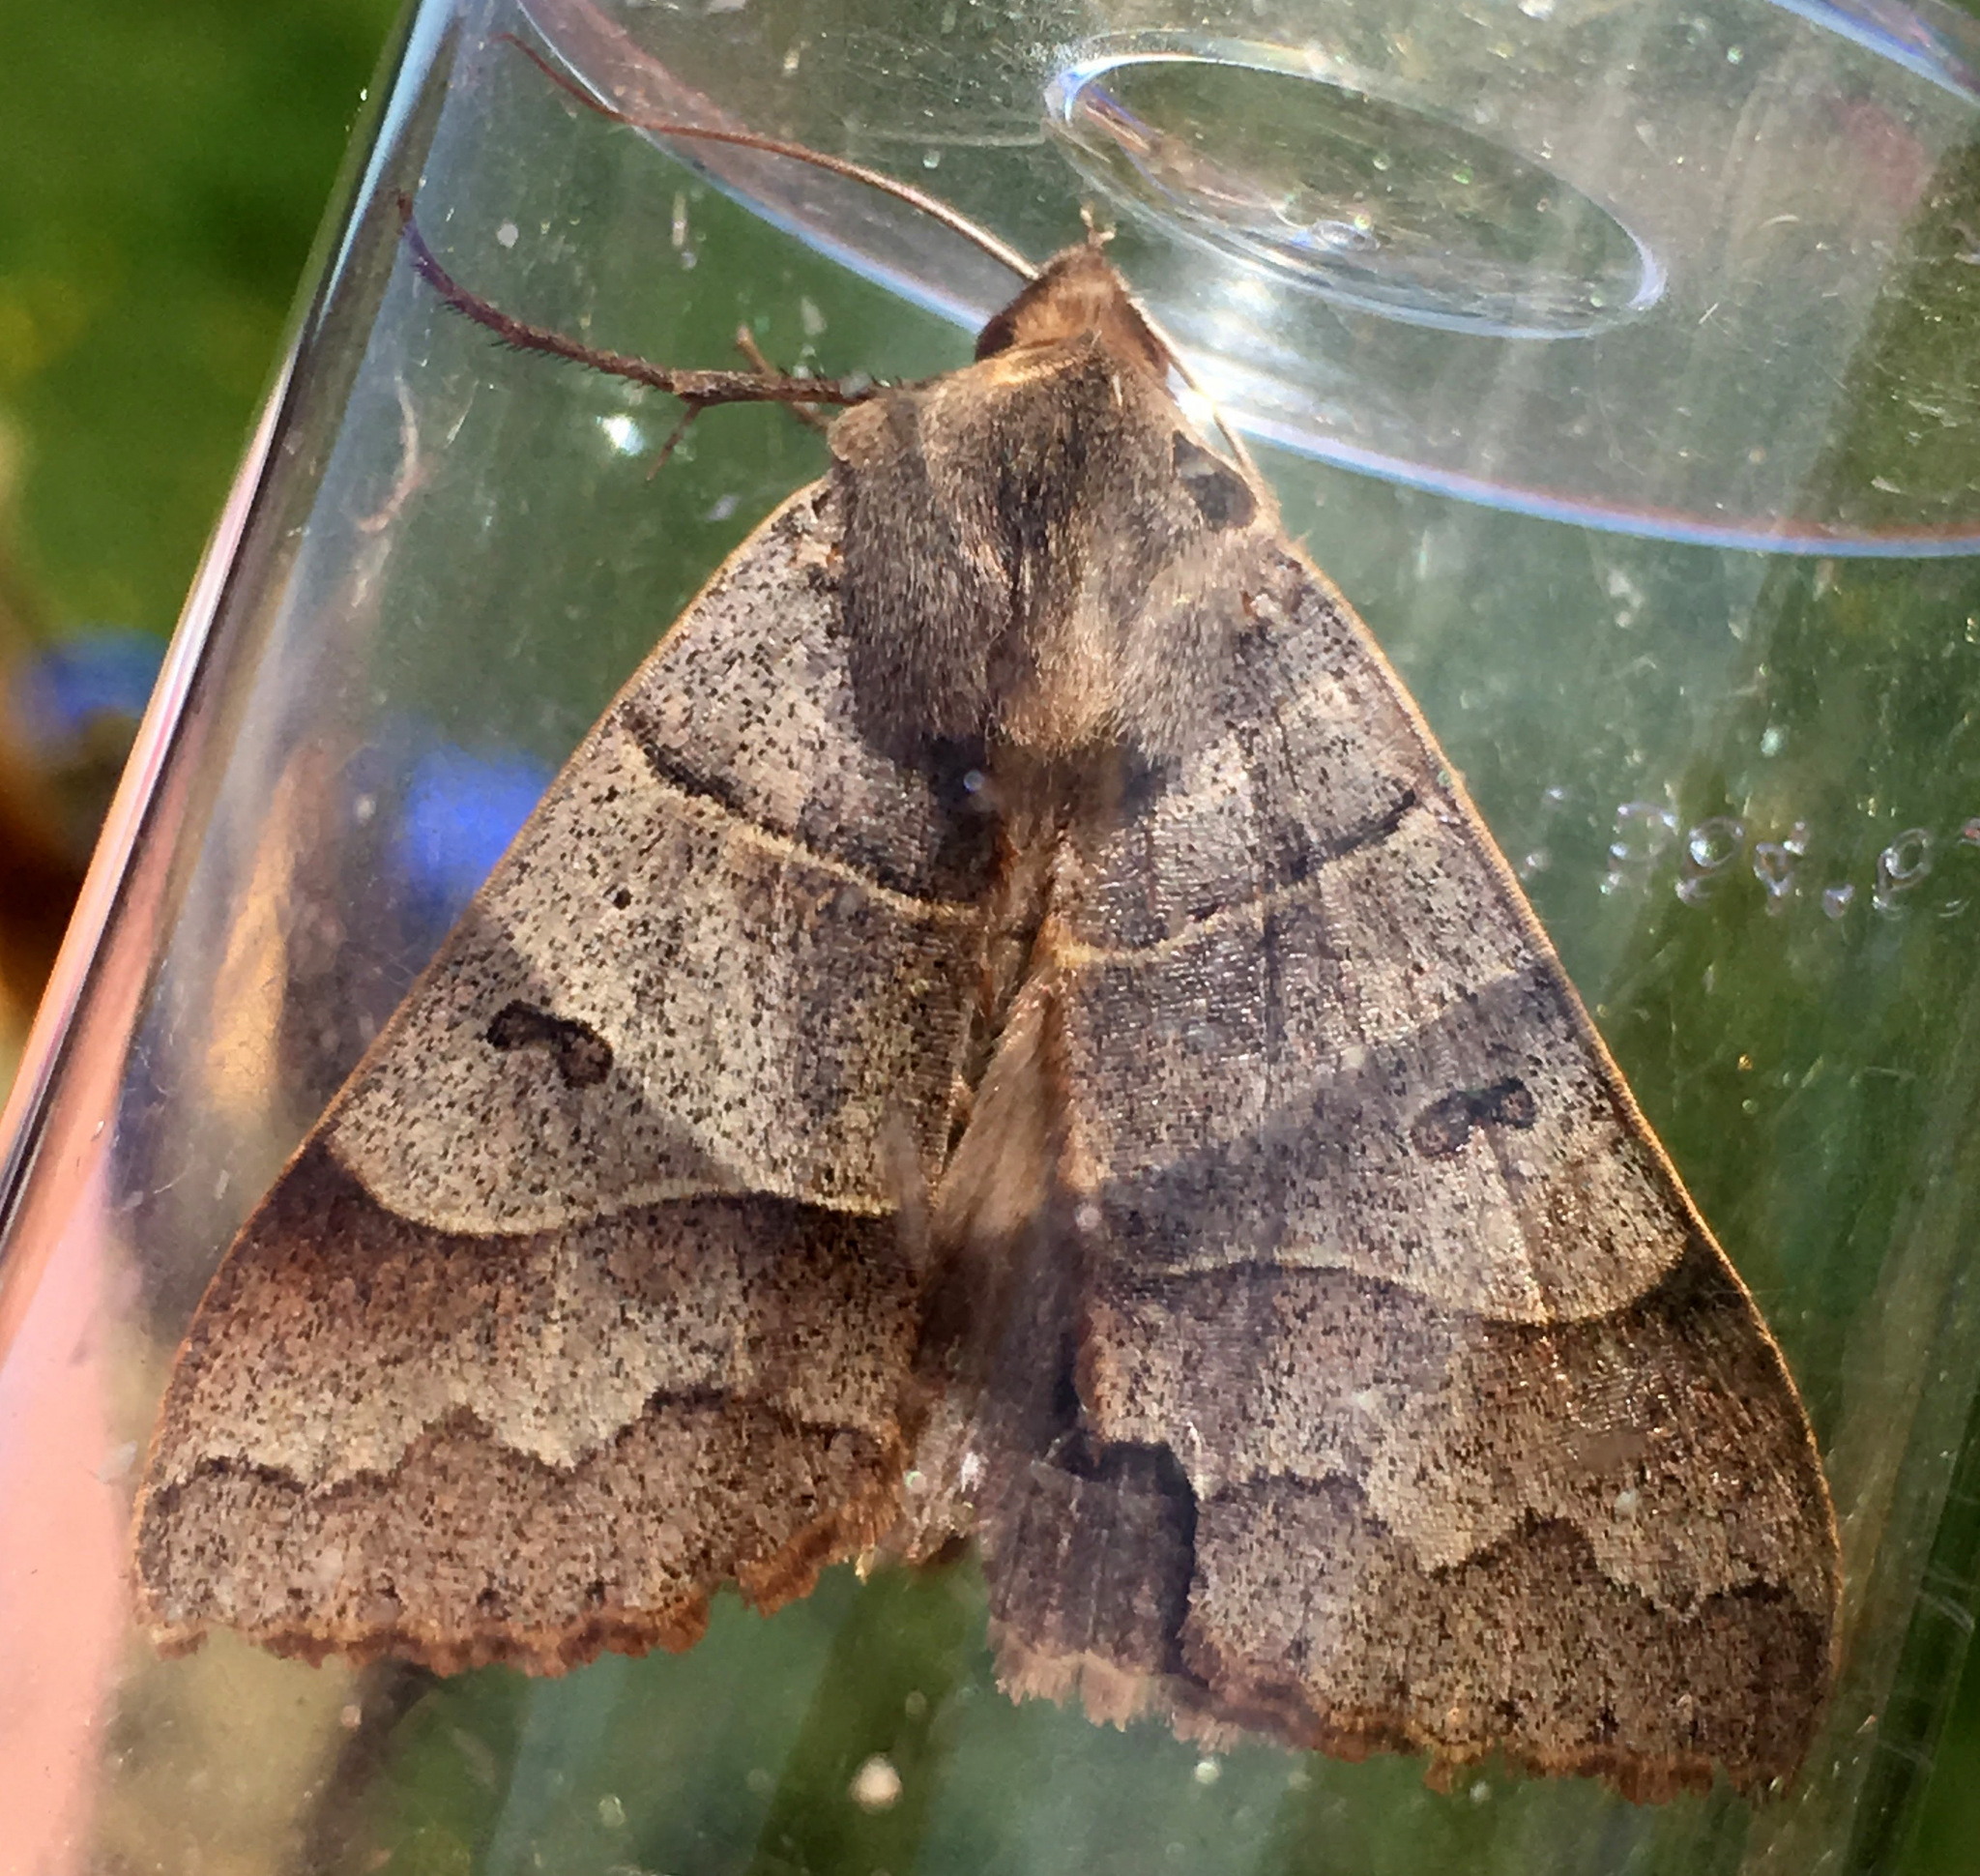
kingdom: Animalia
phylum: Arthropoda
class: Insecta
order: Lepidoptera
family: Erebidae
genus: Minucia
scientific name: Minucia lunaris
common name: Lunar double-stripe
